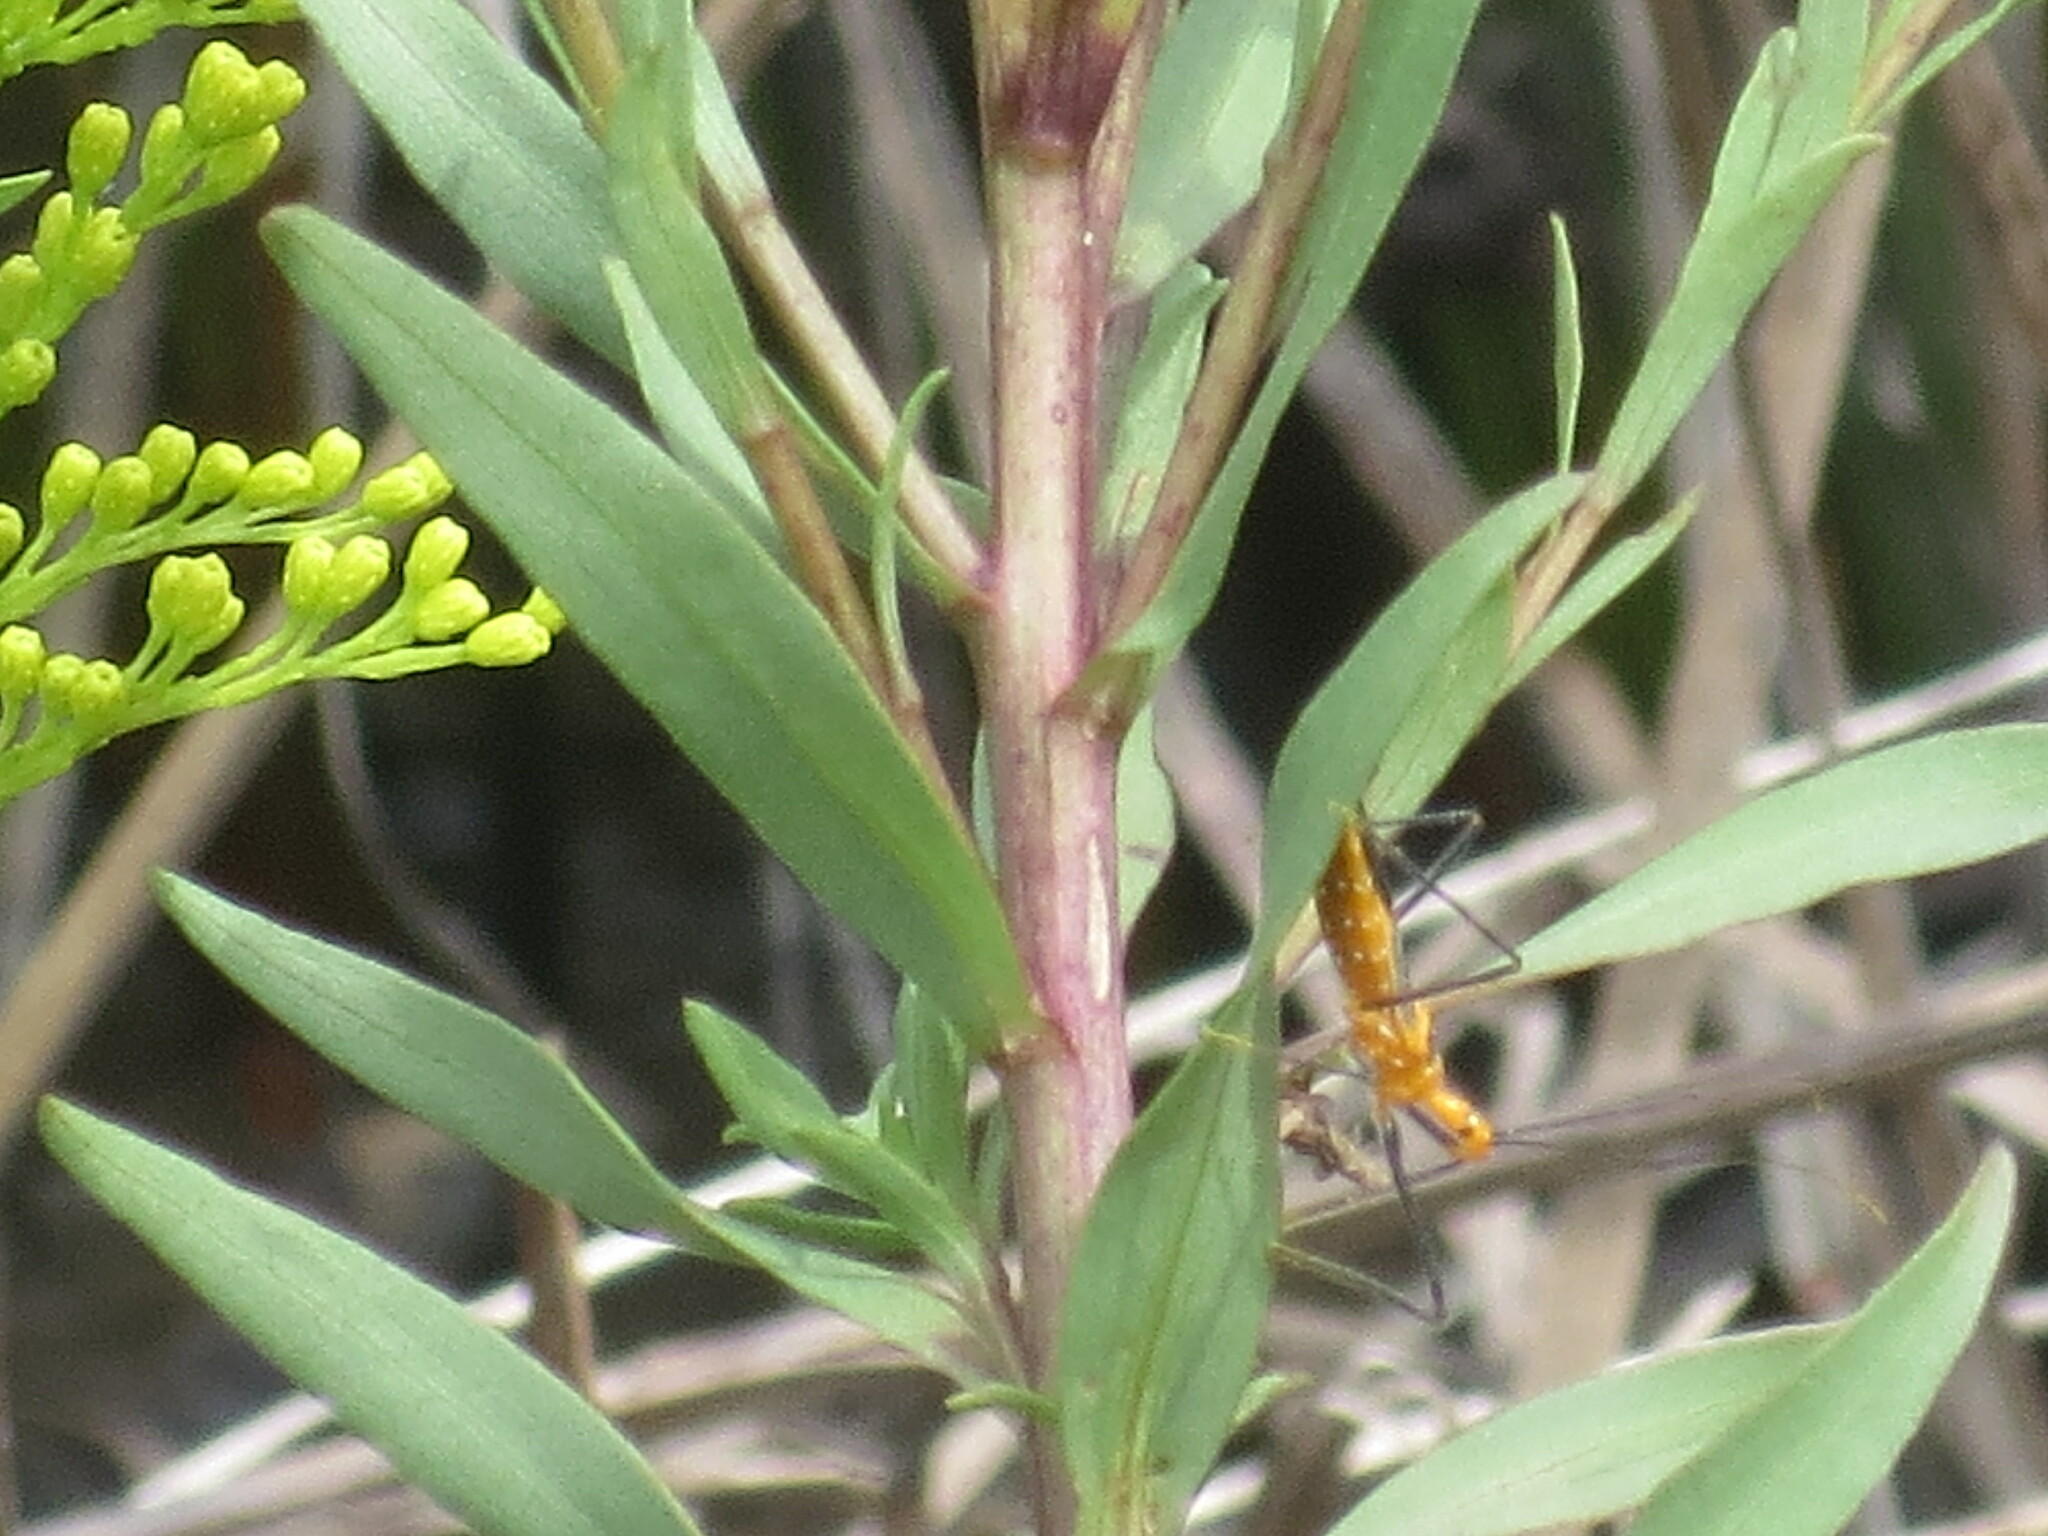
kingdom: Animalia
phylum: Arthropoda
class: Insecta
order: Hemiptera
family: Reduviidae
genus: Zelus
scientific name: Zelus longipes
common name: Milkweed assassin bug
